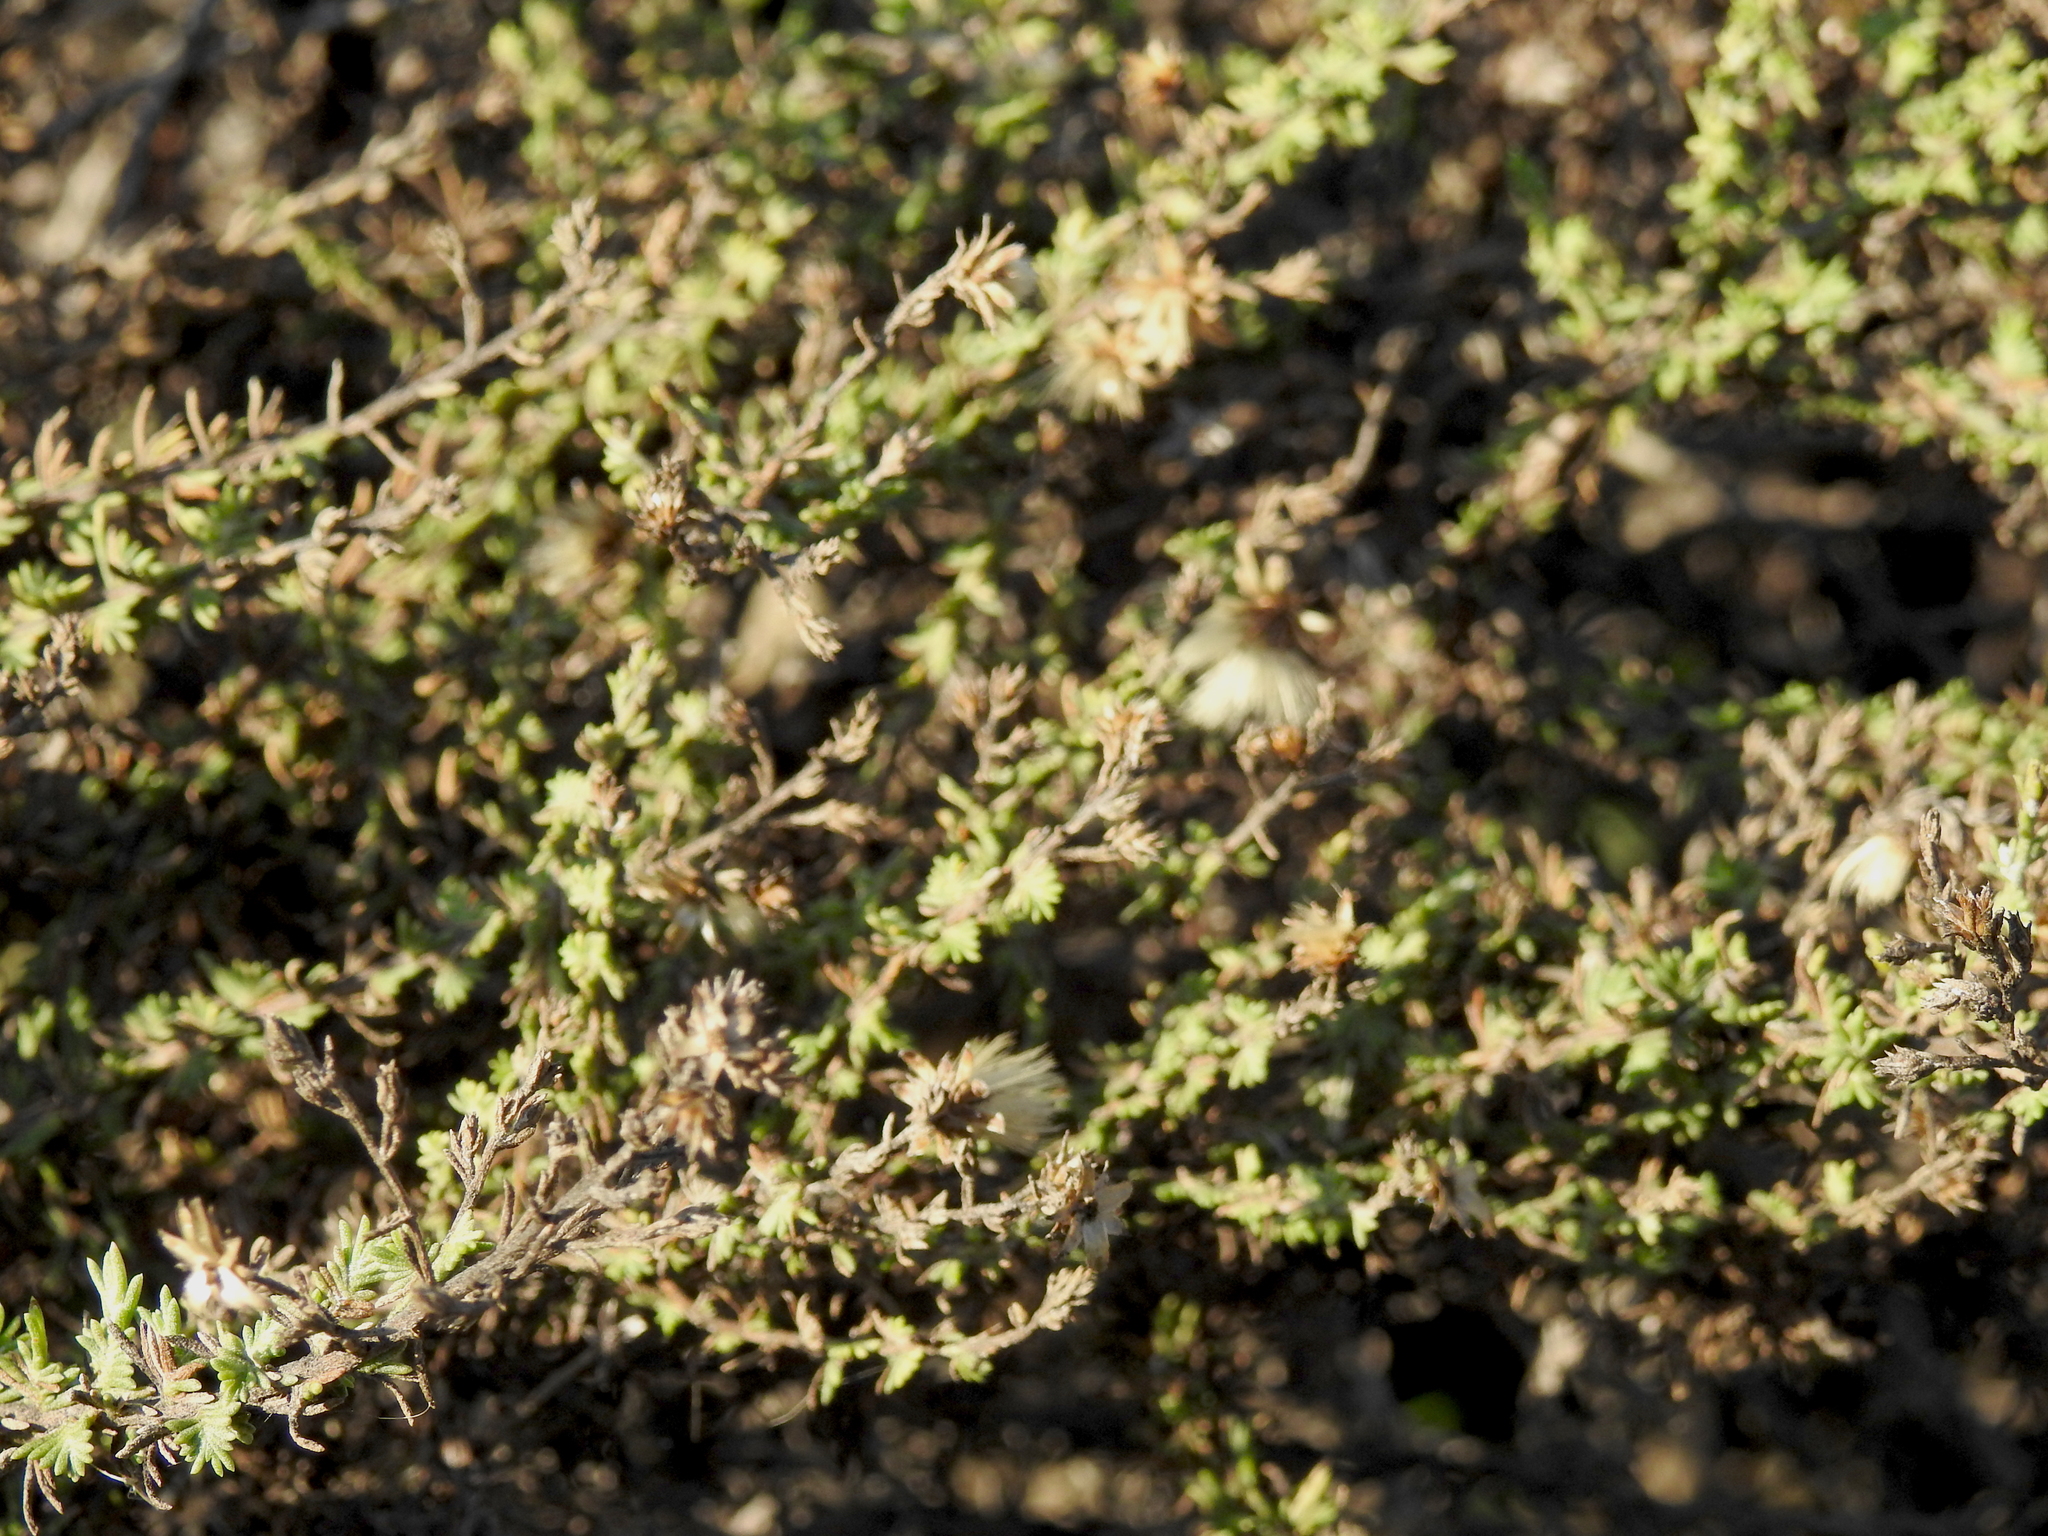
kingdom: Plantae
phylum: Tracheophyta
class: Magnoliopsida
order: Asterales
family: Asteraceae
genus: Ericameria
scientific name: Ericameria ericoides
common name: California goldenbush
